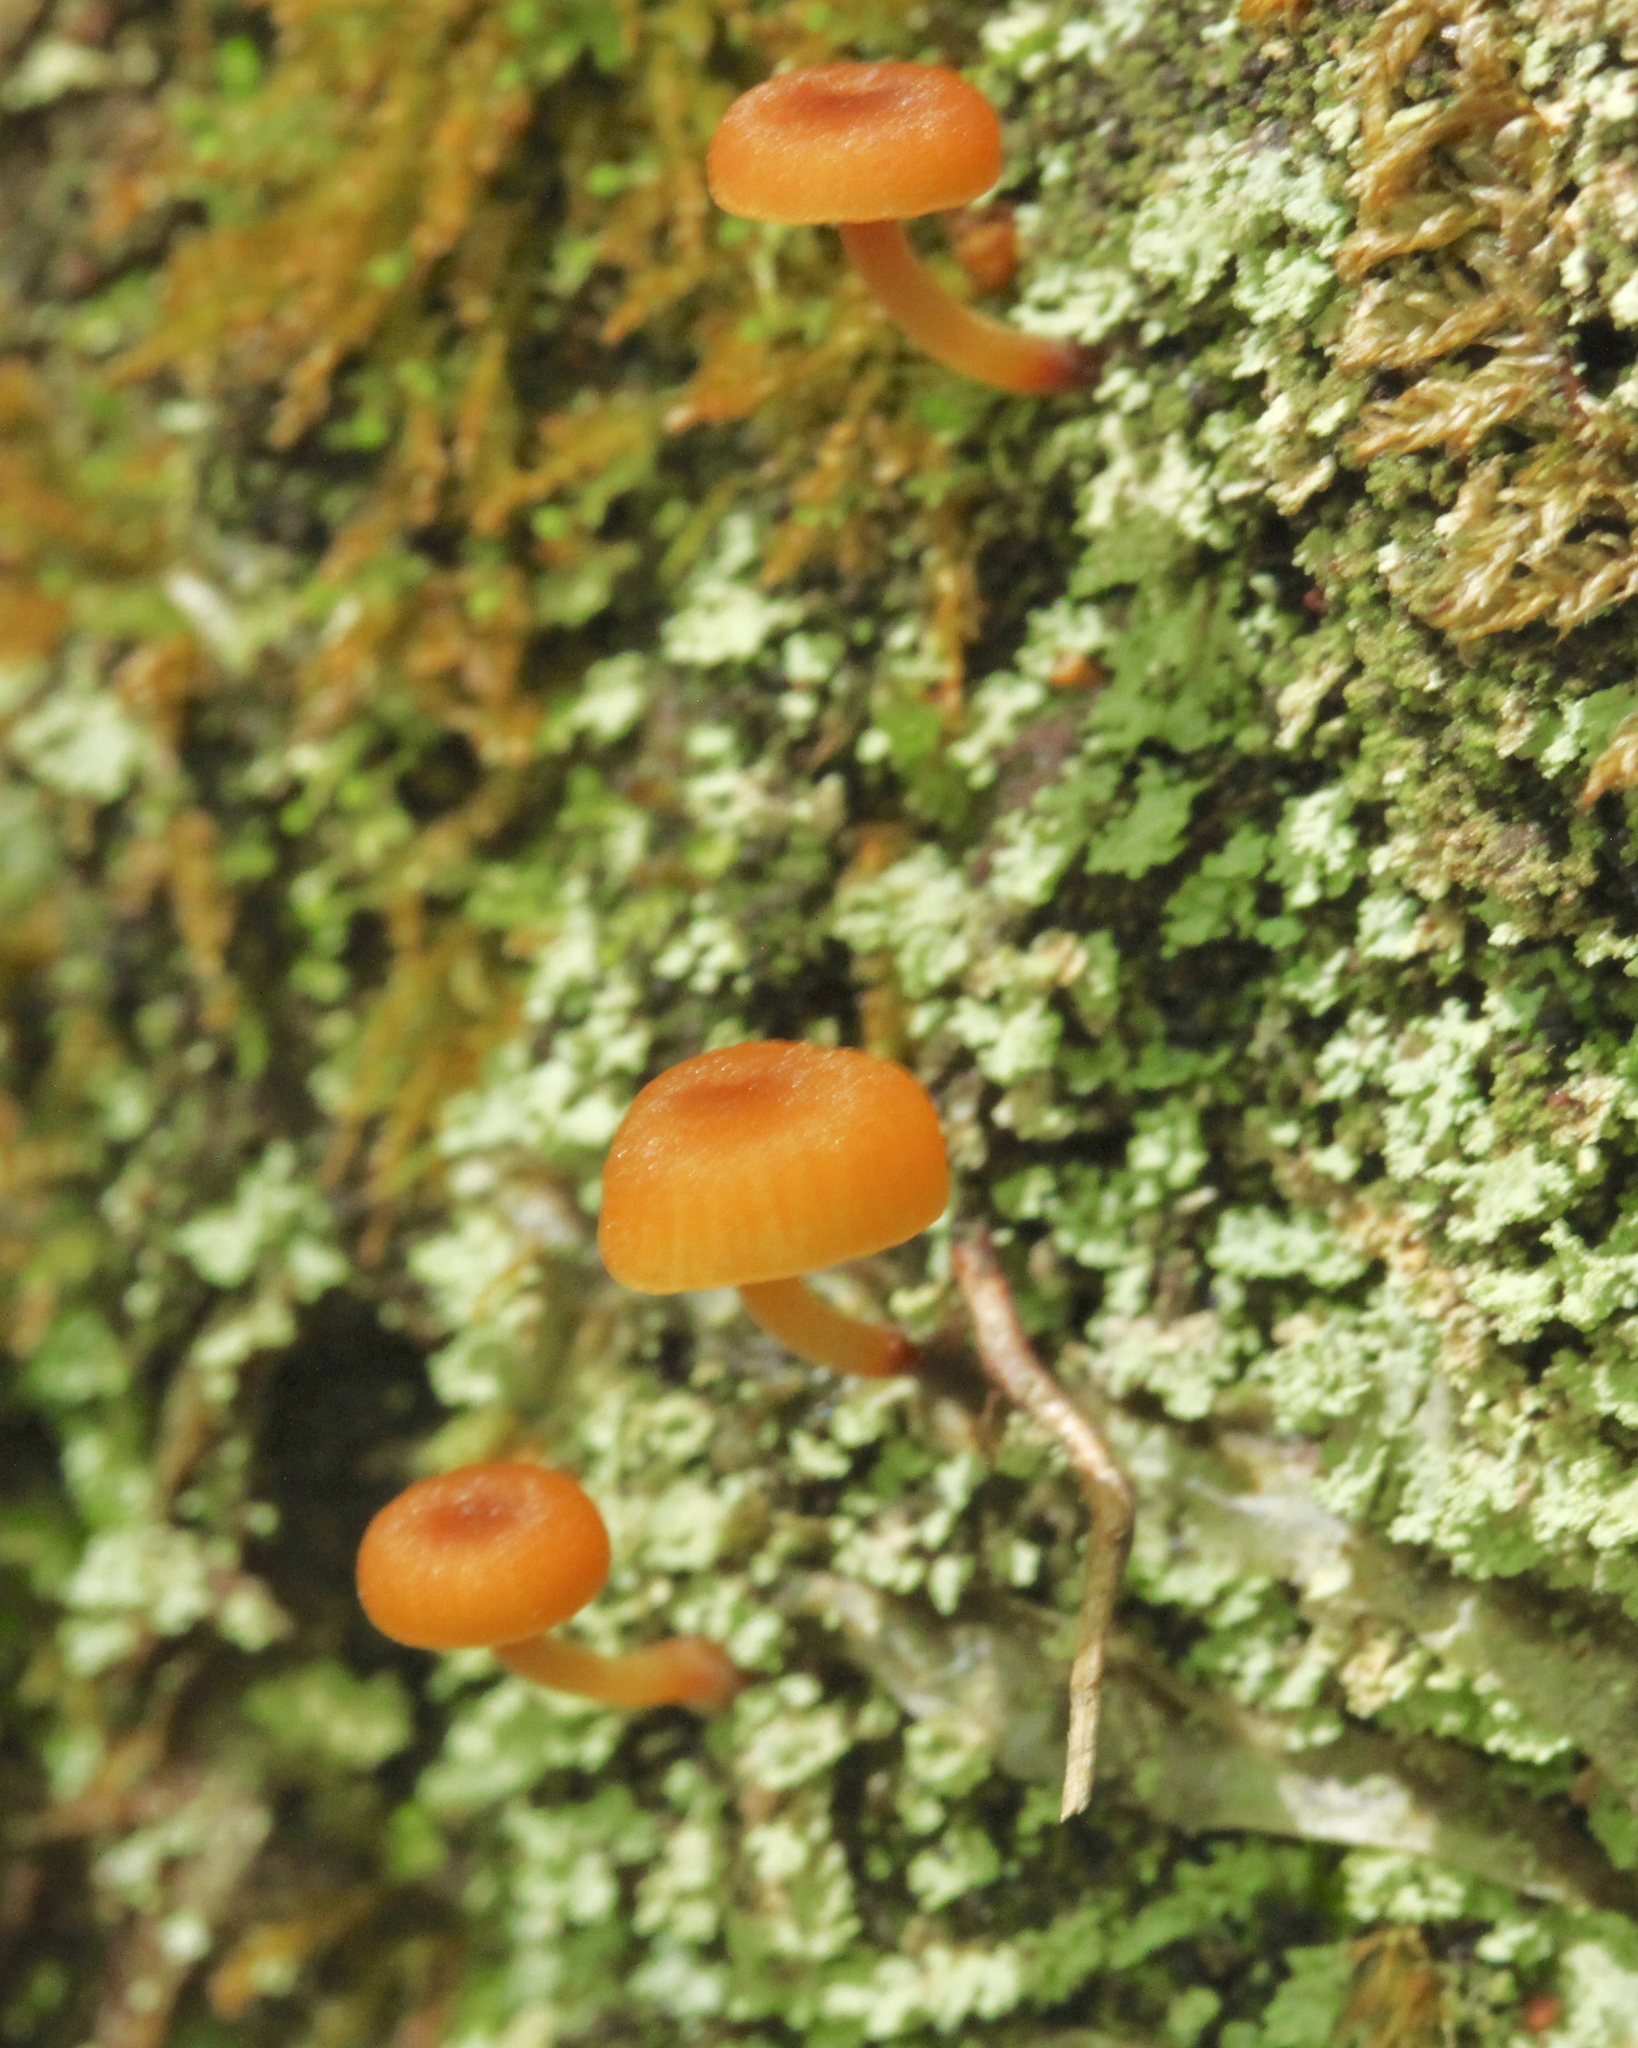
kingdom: Fungi
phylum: Basidiomycota
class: Agaricomycetes
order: Agaricales
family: Mycenaceae
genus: Xeromphalina
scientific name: Xeromphalina campanella
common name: Pinewood gingertail
